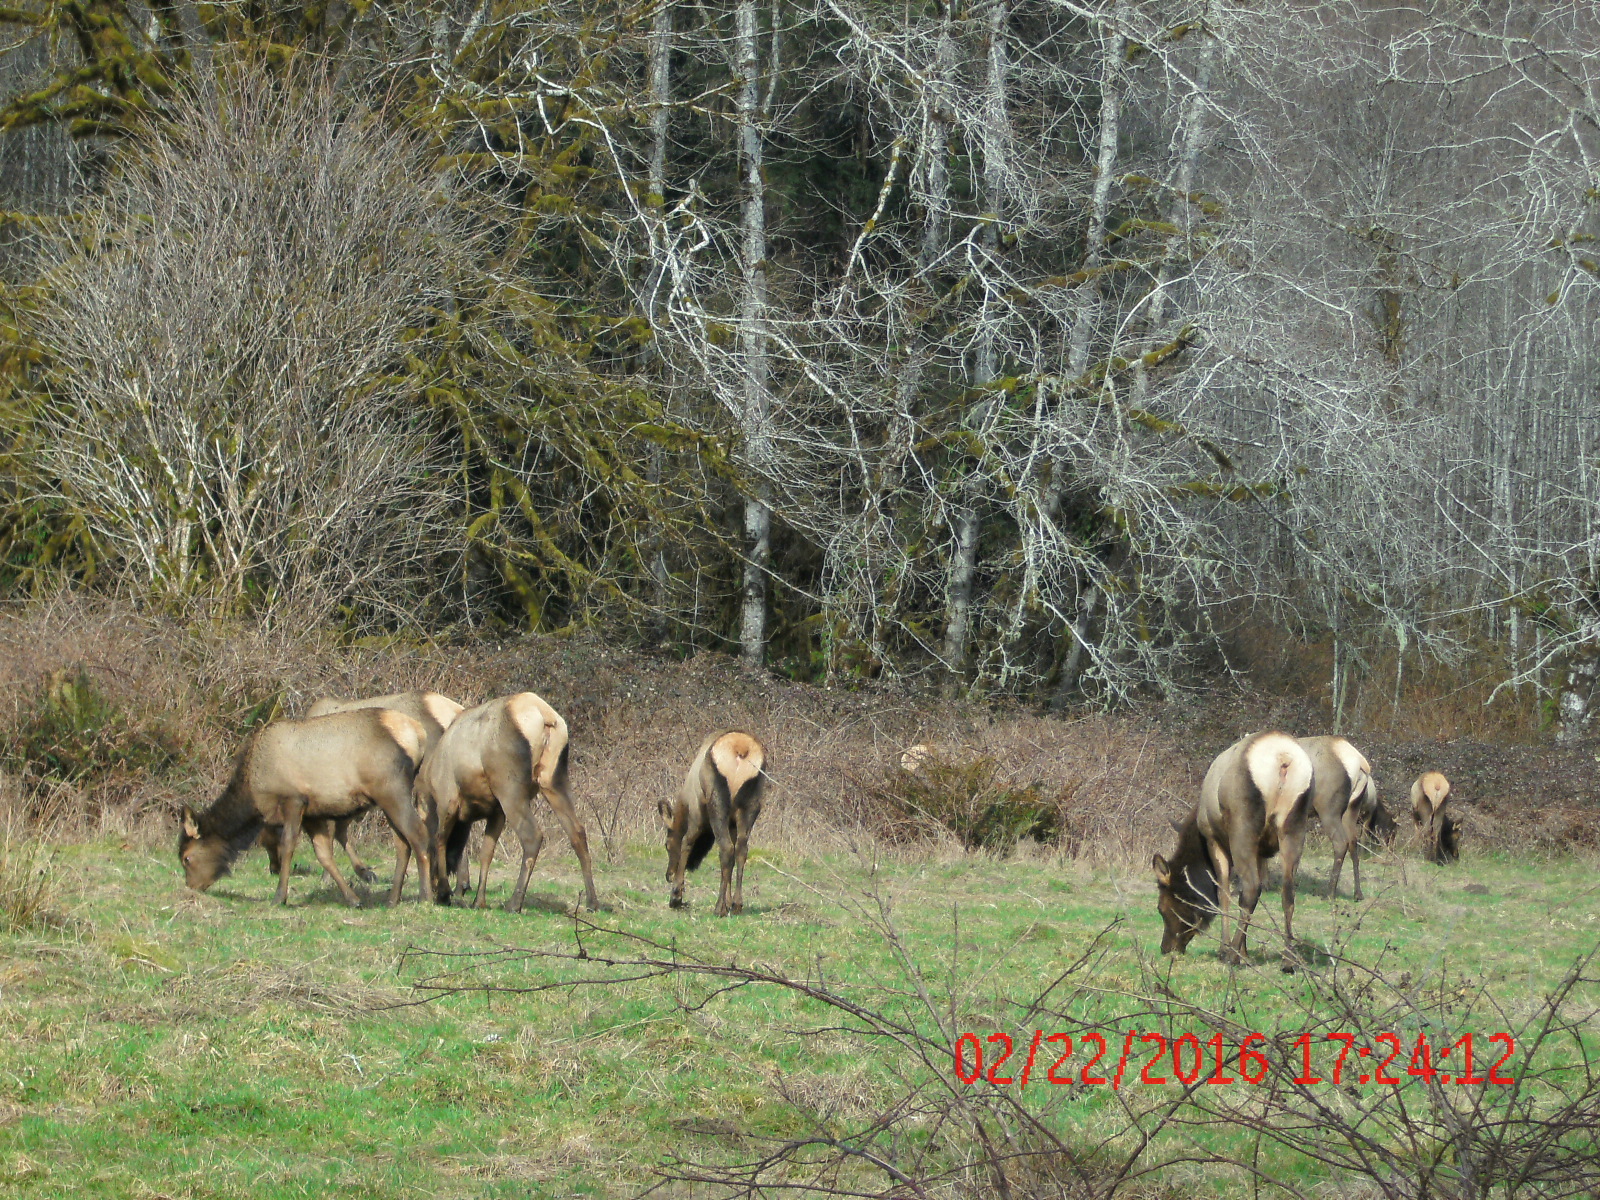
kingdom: Animalia
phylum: Chordata
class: Mammalia
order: Artiodactyla
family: Cervidae
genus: Cervus
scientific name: Cervus elaphus
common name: Red deer
